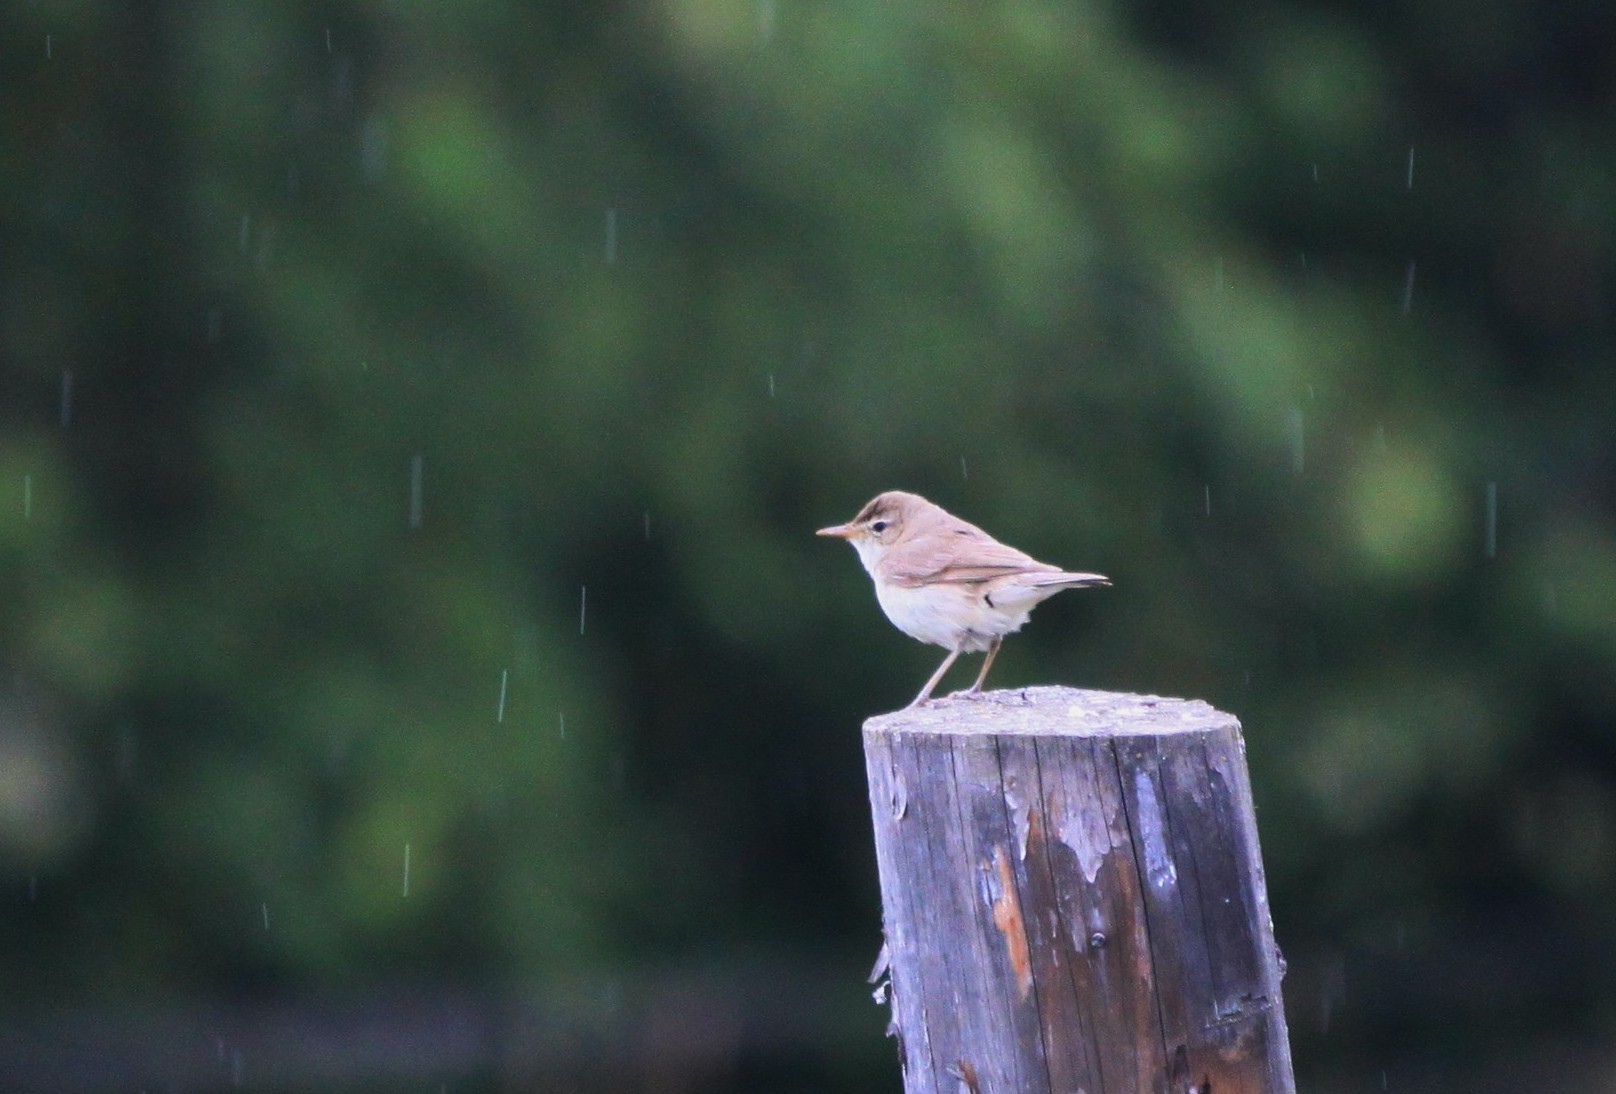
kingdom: Animalia
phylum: Chordata
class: Aves
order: Passeriformes
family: Acrocephalidae
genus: Acrocephalus
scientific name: Acrocephalus dumetorum
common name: Blyth's reed warbler
